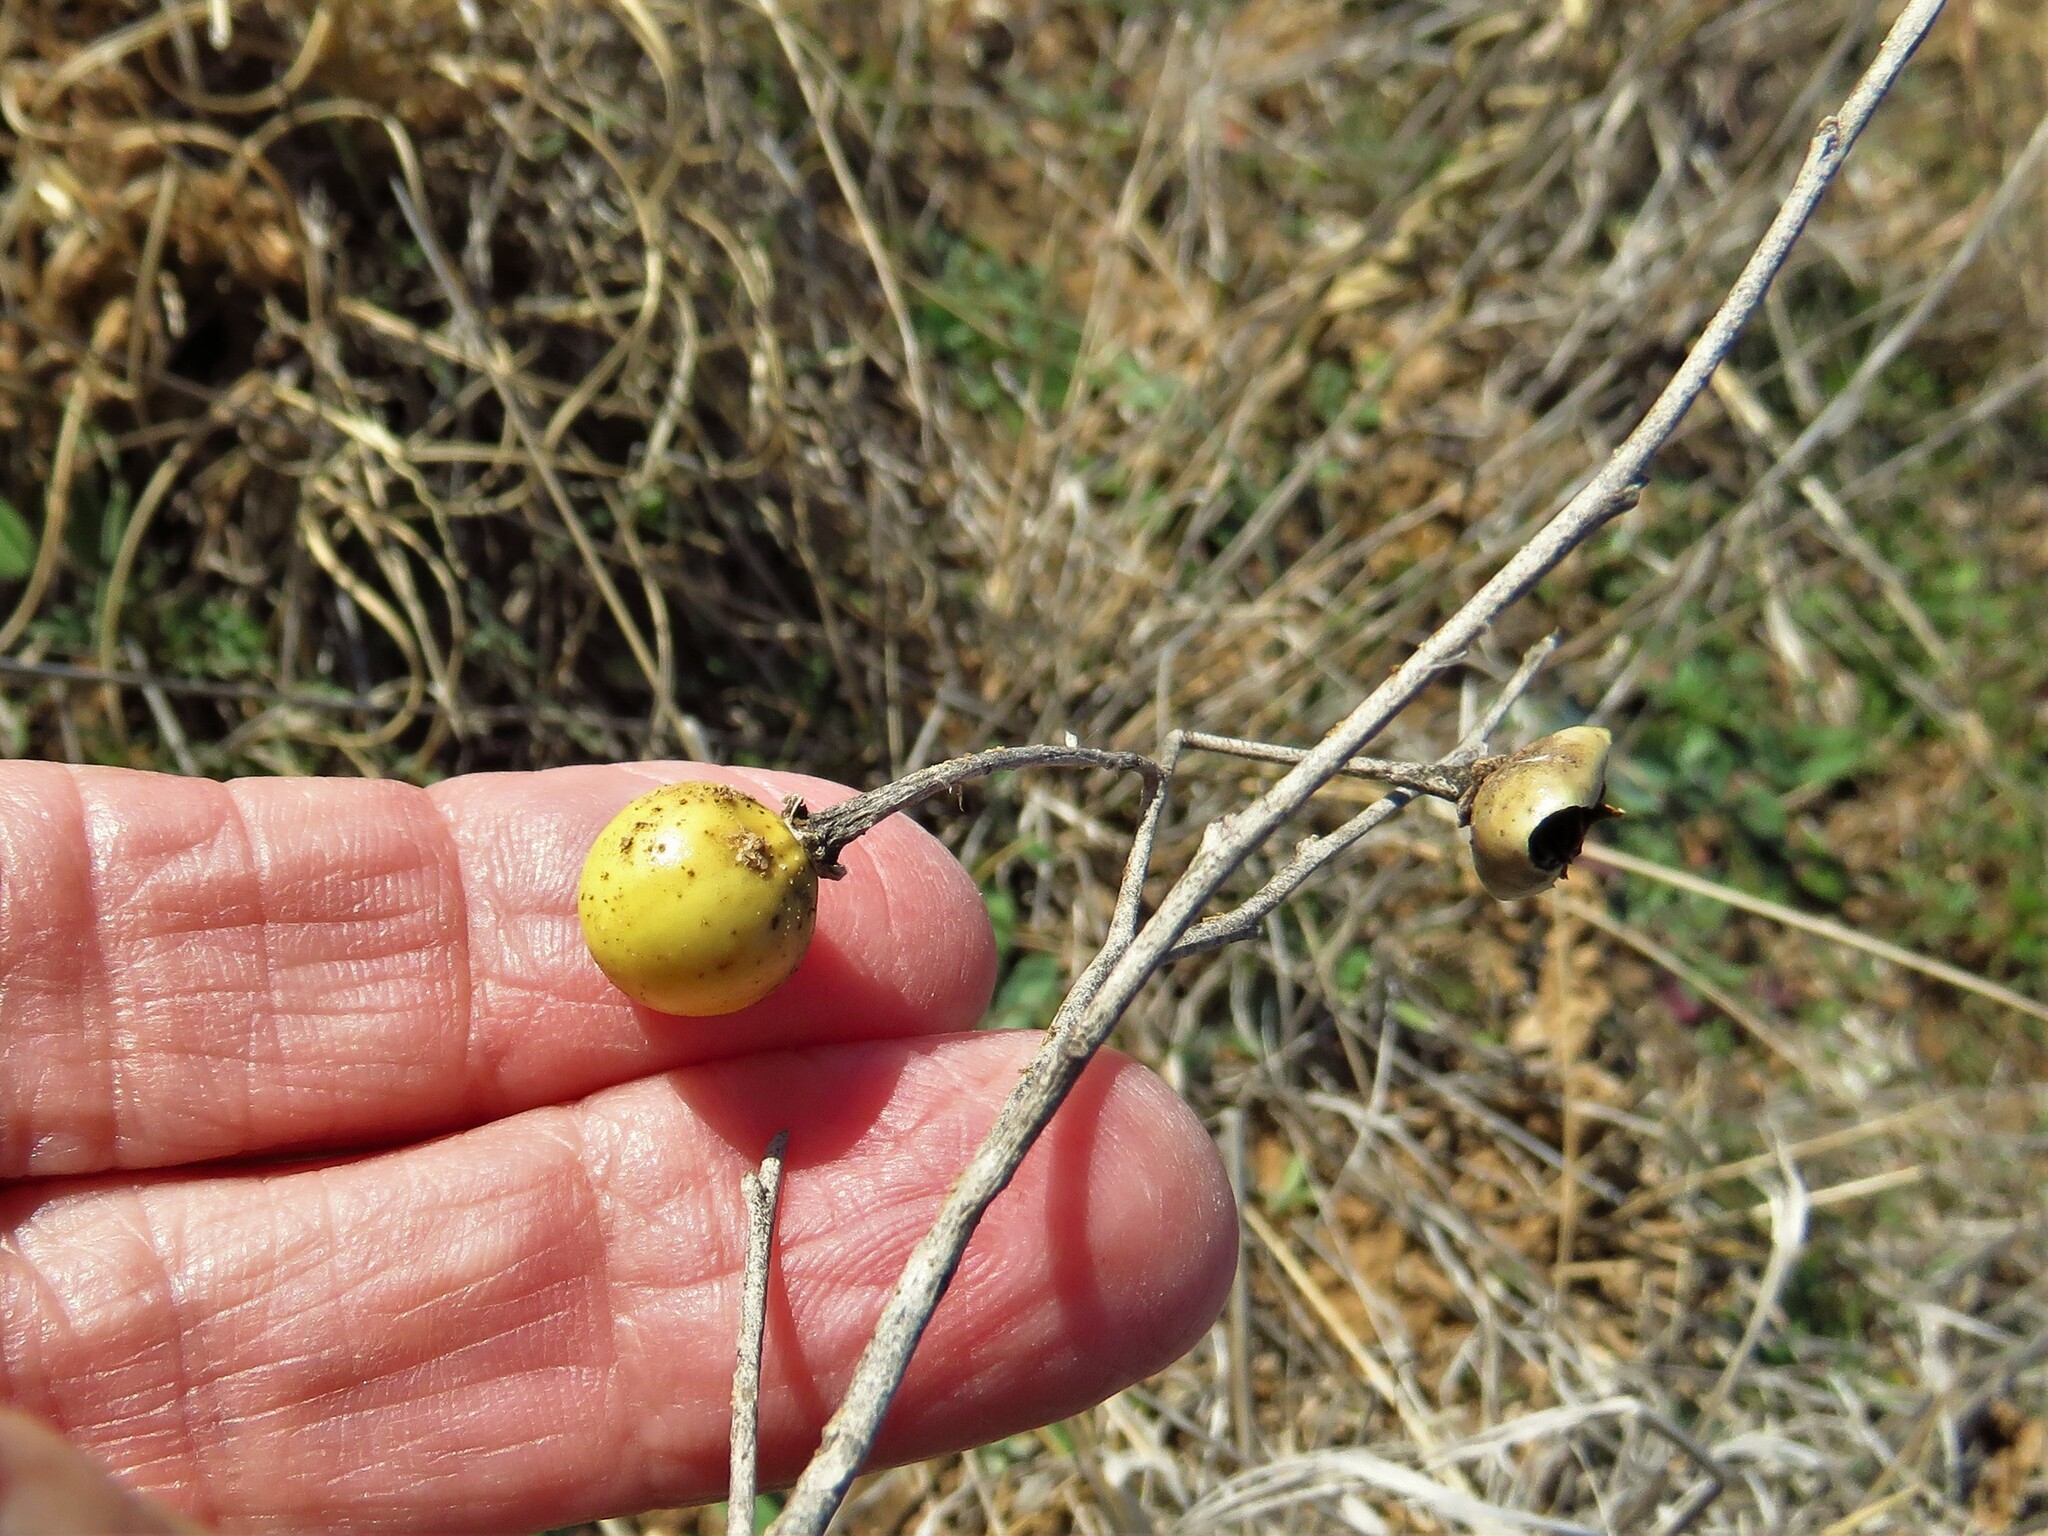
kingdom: Plantae
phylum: Tracheophyta
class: Magnoliopsida
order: Solanales
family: Solanaceae
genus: Solanum
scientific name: Solanum elaeagnifolium
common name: Silverleaf nightshade
